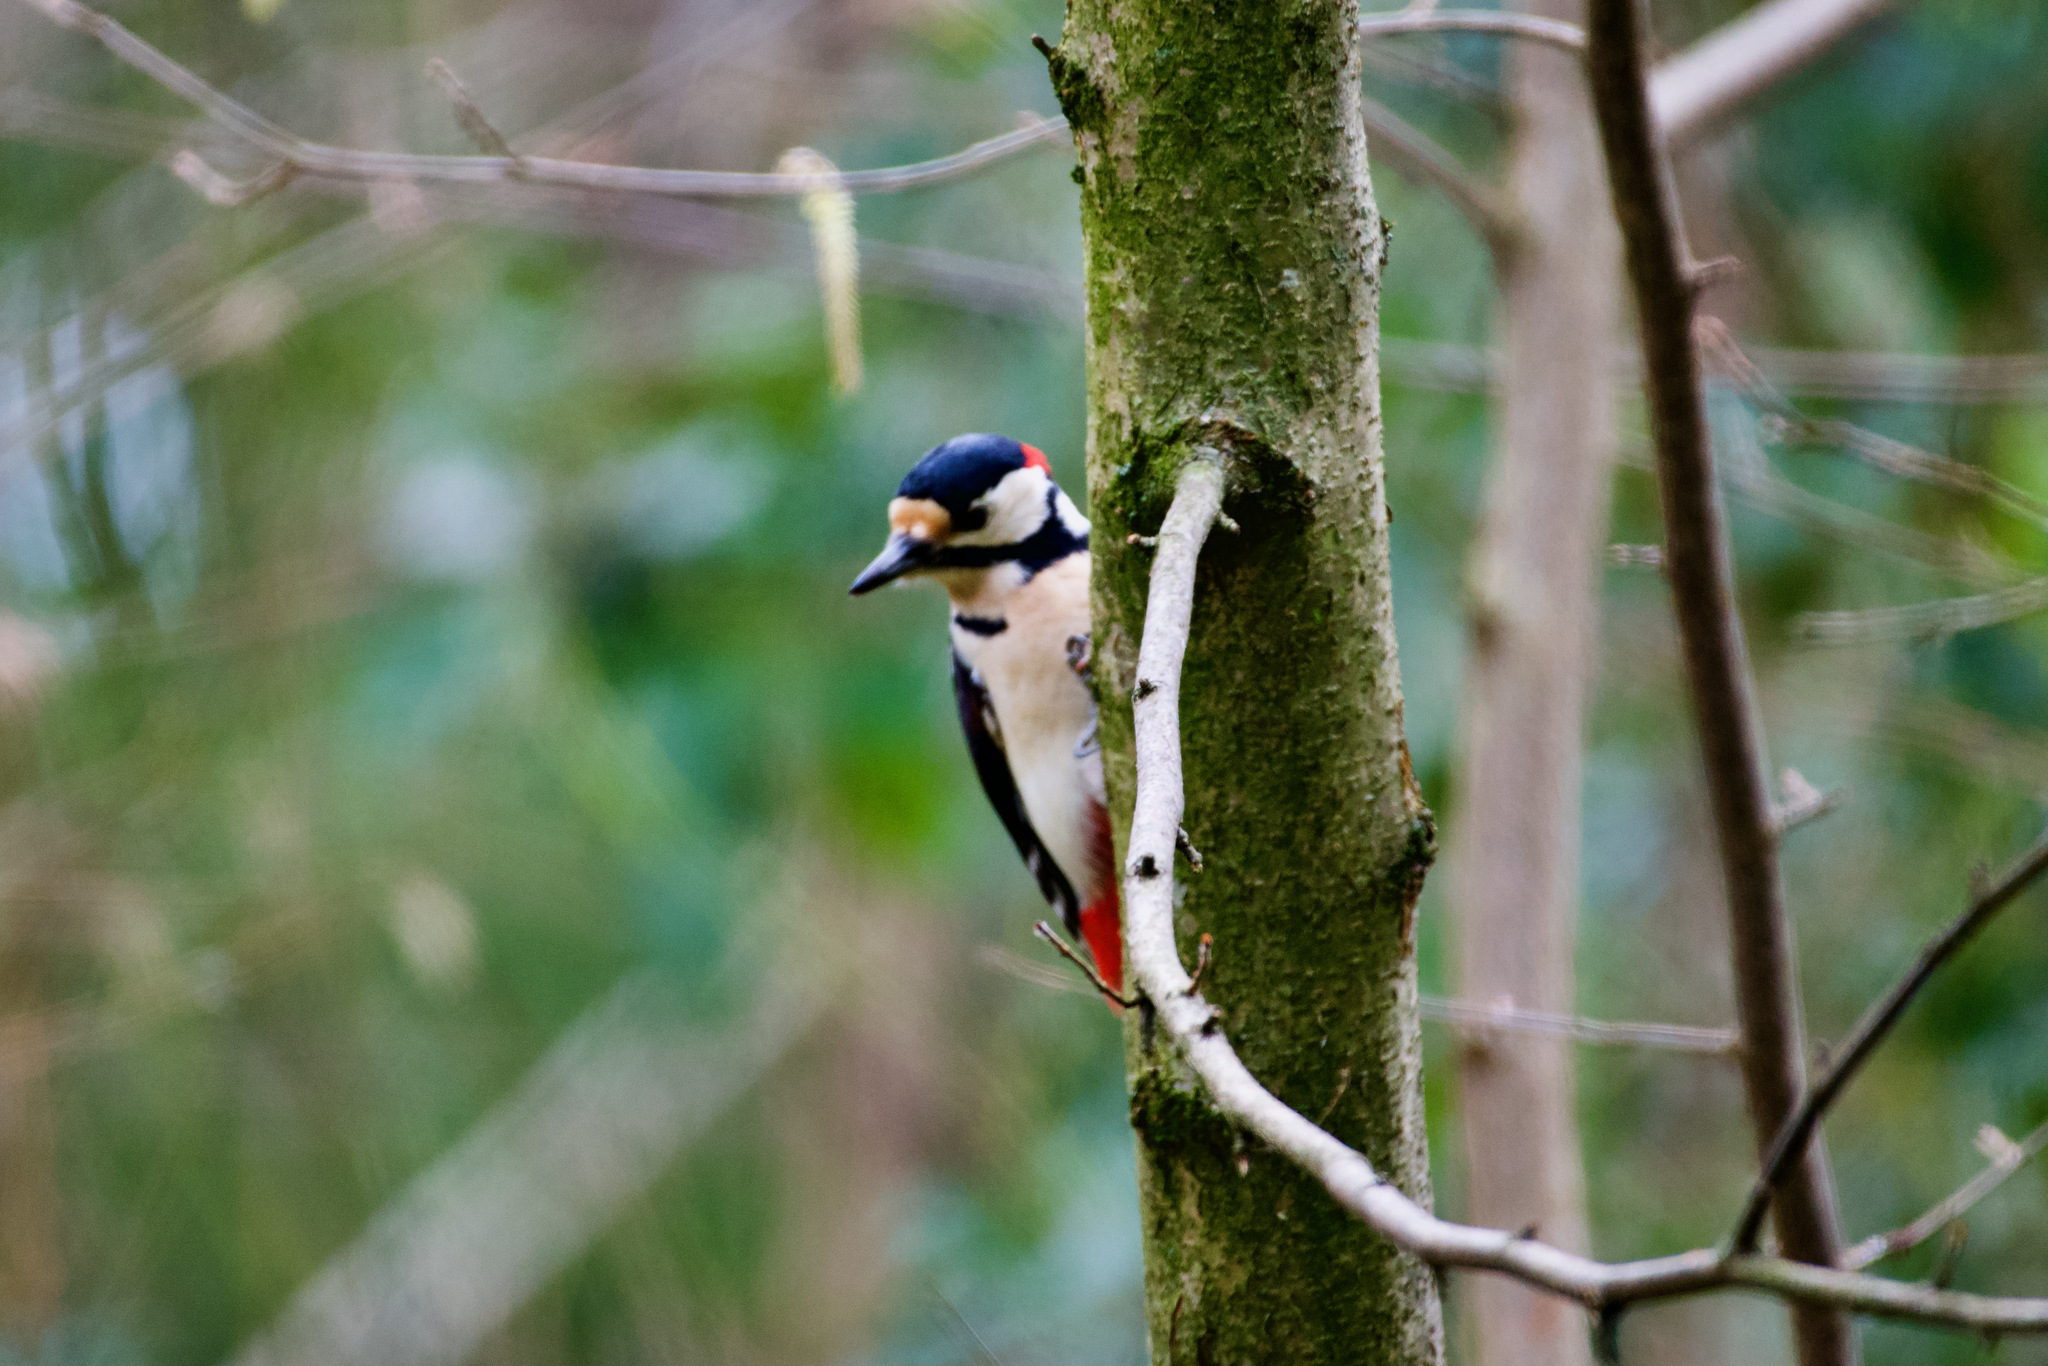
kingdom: Animalia
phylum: Chordata
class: Aves
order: Piciformes
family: Picidae
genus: Dendrocopos
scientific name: Dendrocopos major
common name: Great spotted woodpecker
